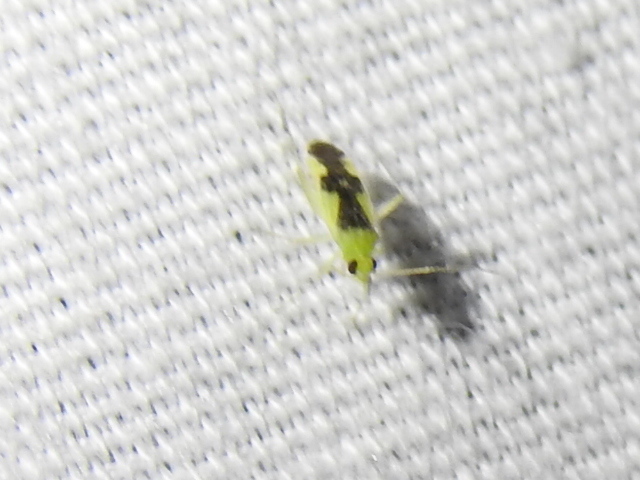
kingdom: Animalia
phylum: Arthropoda
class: Insecta
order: Hemiptera
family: Miridae
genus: Reuteroscopus
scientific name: Reuteroscopus ornatus
